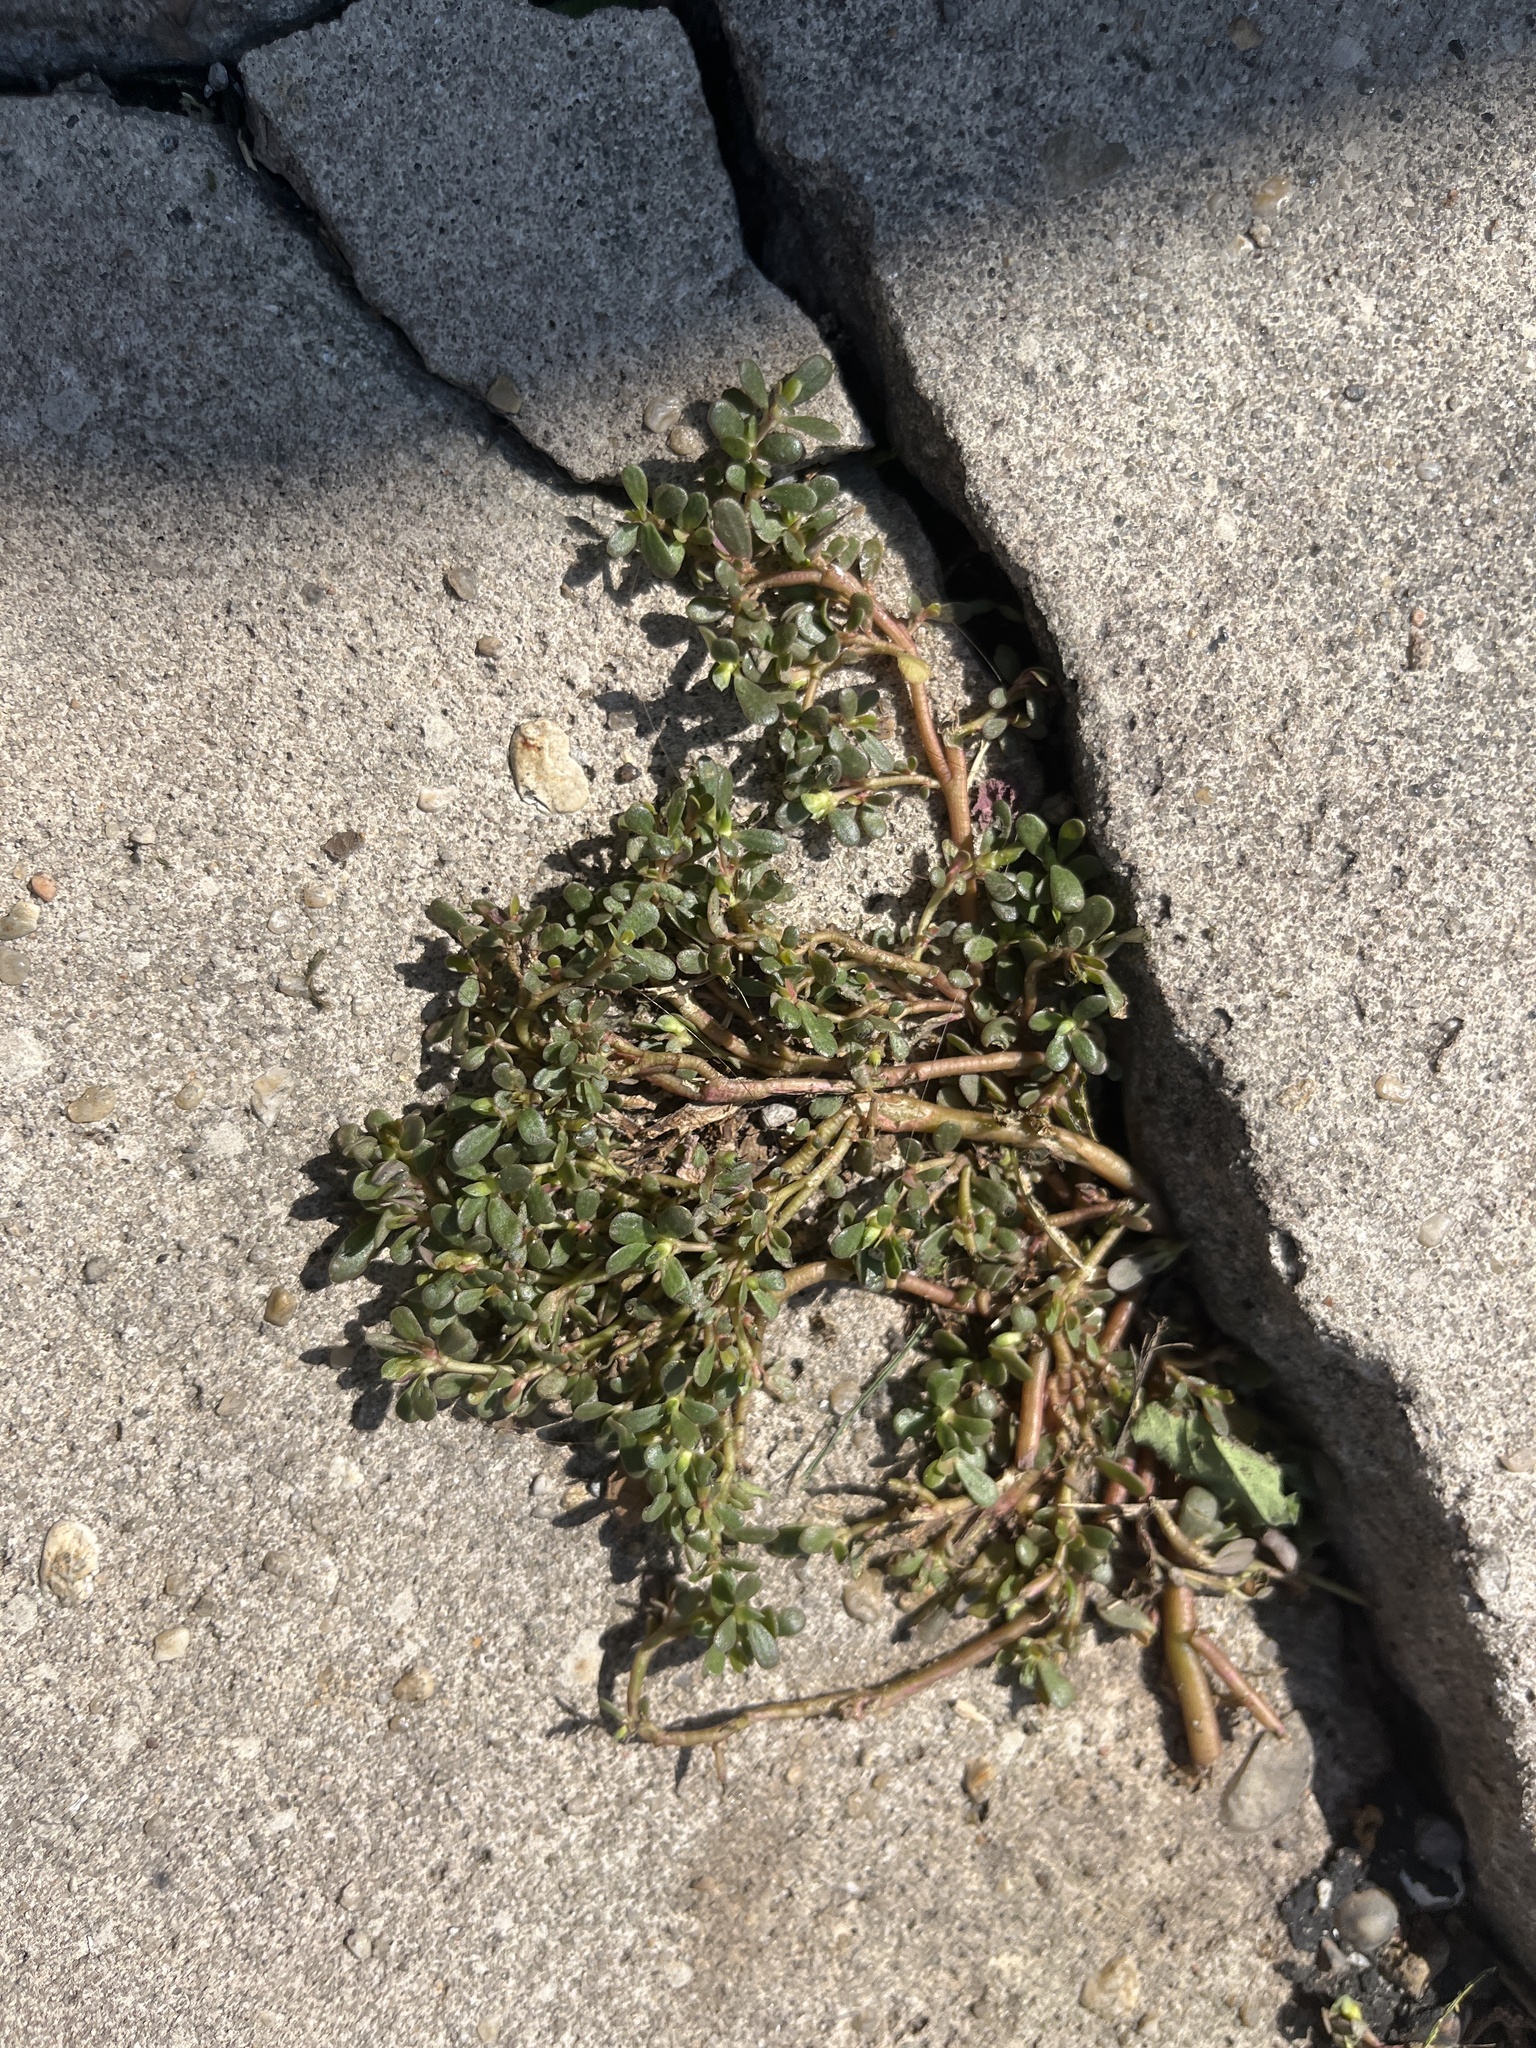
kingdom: Plantae
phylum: Tracheophyta
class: Magnoliopsida
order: Caryophyllales
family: Portulacaceae
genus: Portulaca
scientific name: Portulaca oleracea
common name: Common purslane
